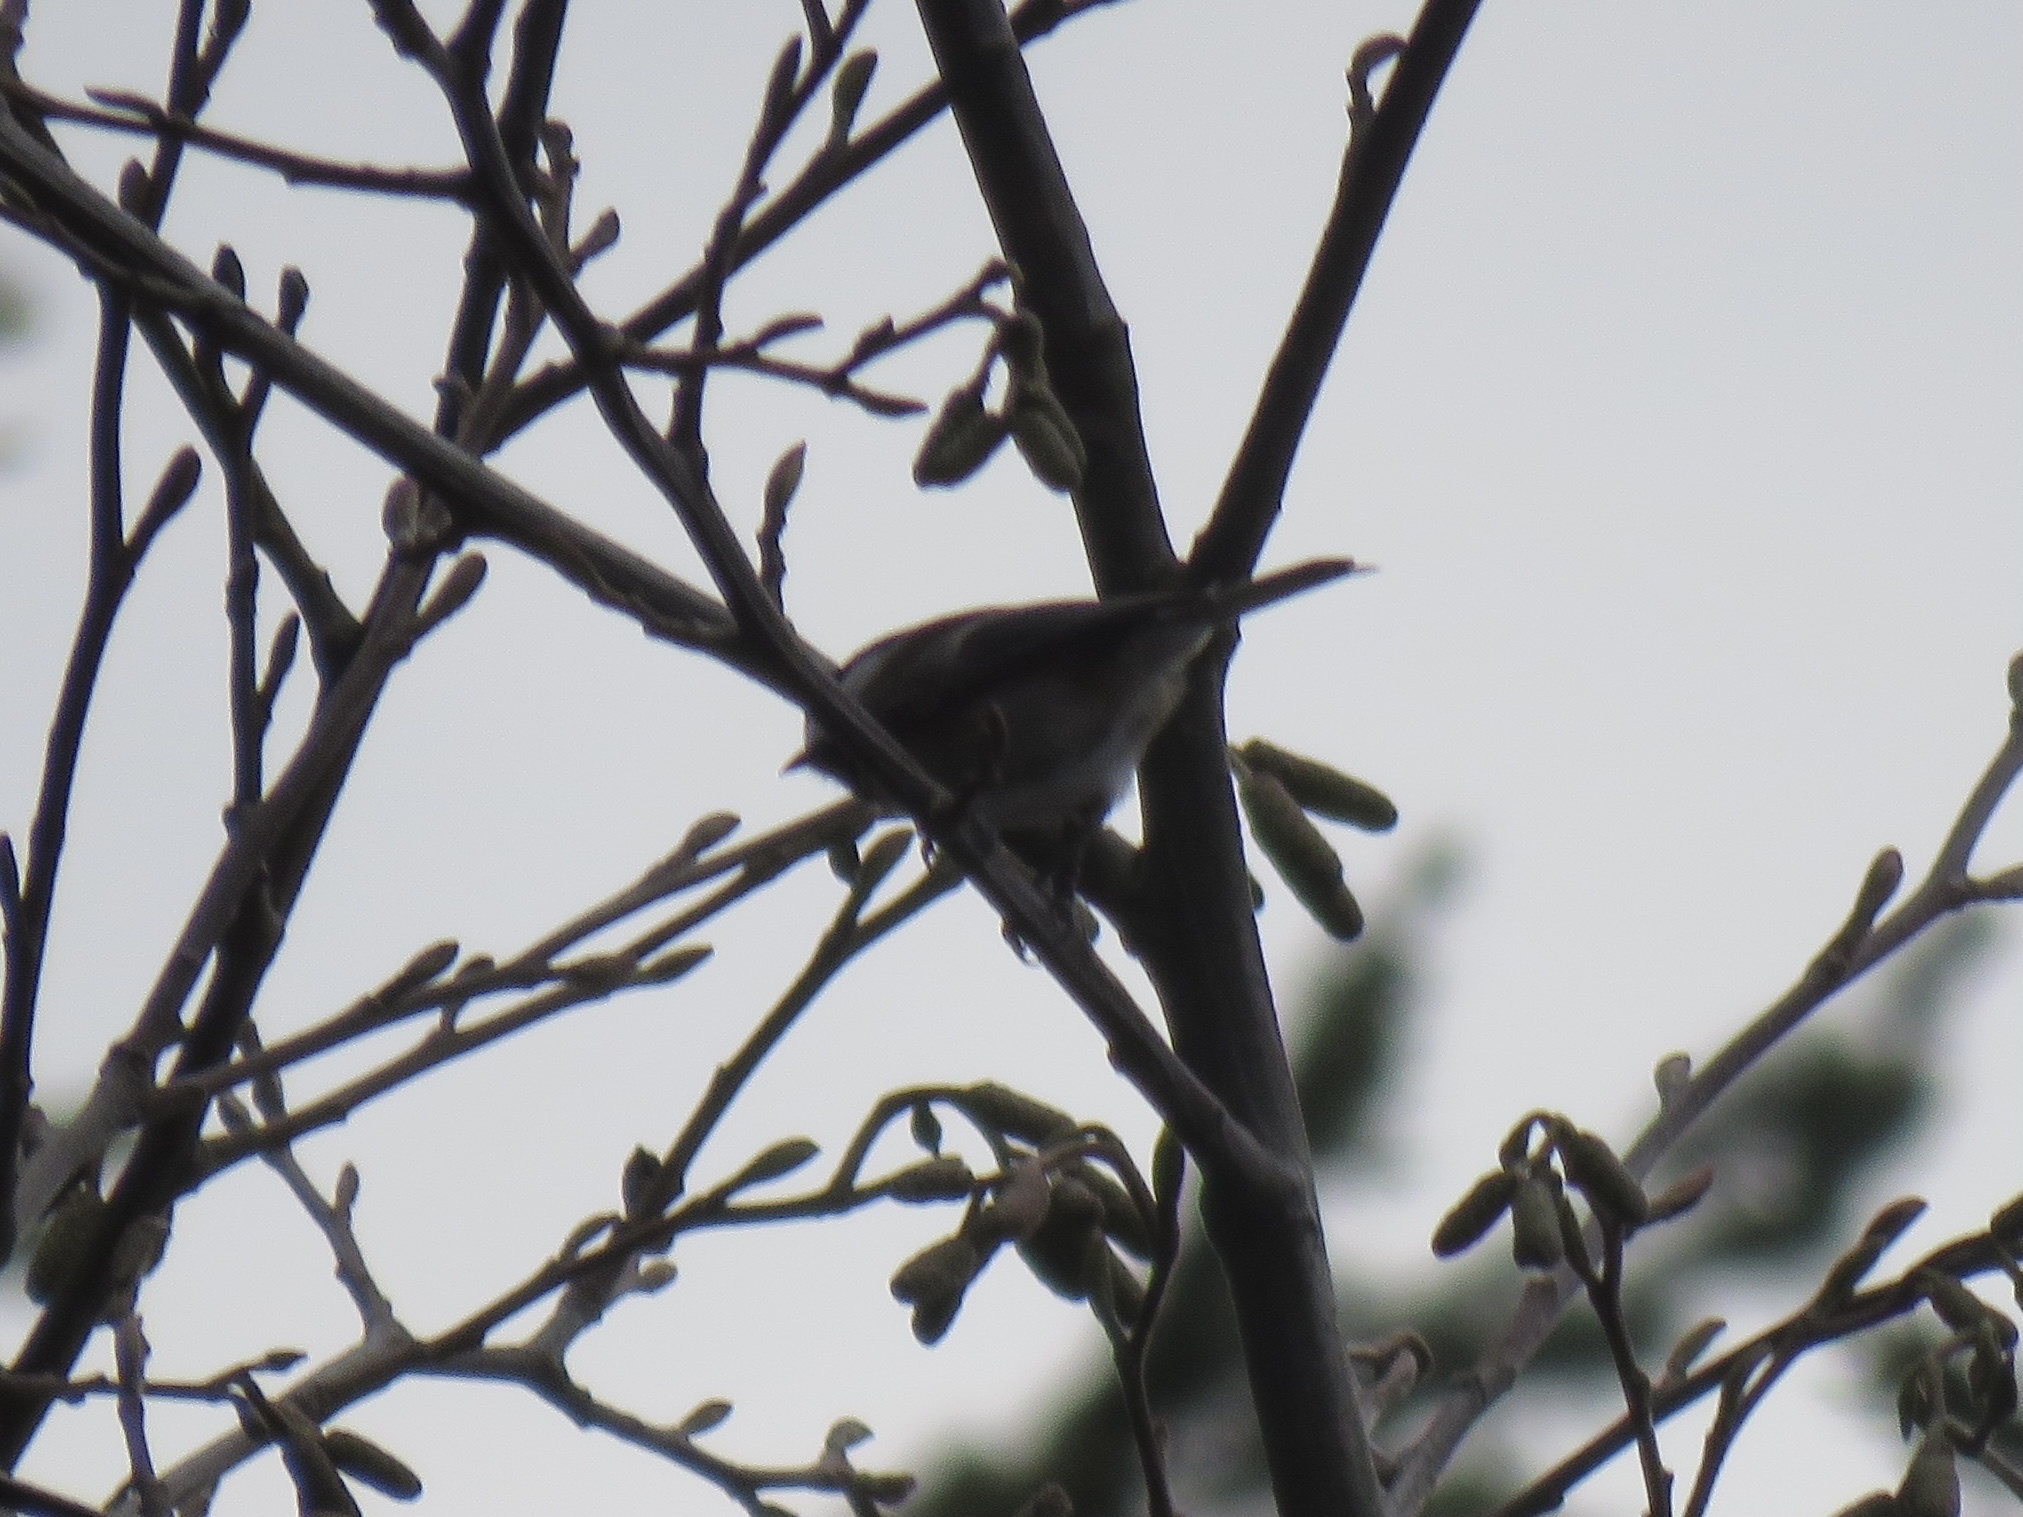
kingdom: Animalia
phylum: Chordata
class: Aves
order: Passeriformes
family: Paridae
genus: Poecile
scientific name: Poecile rufescens
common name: Chestnut-backed chickadee
